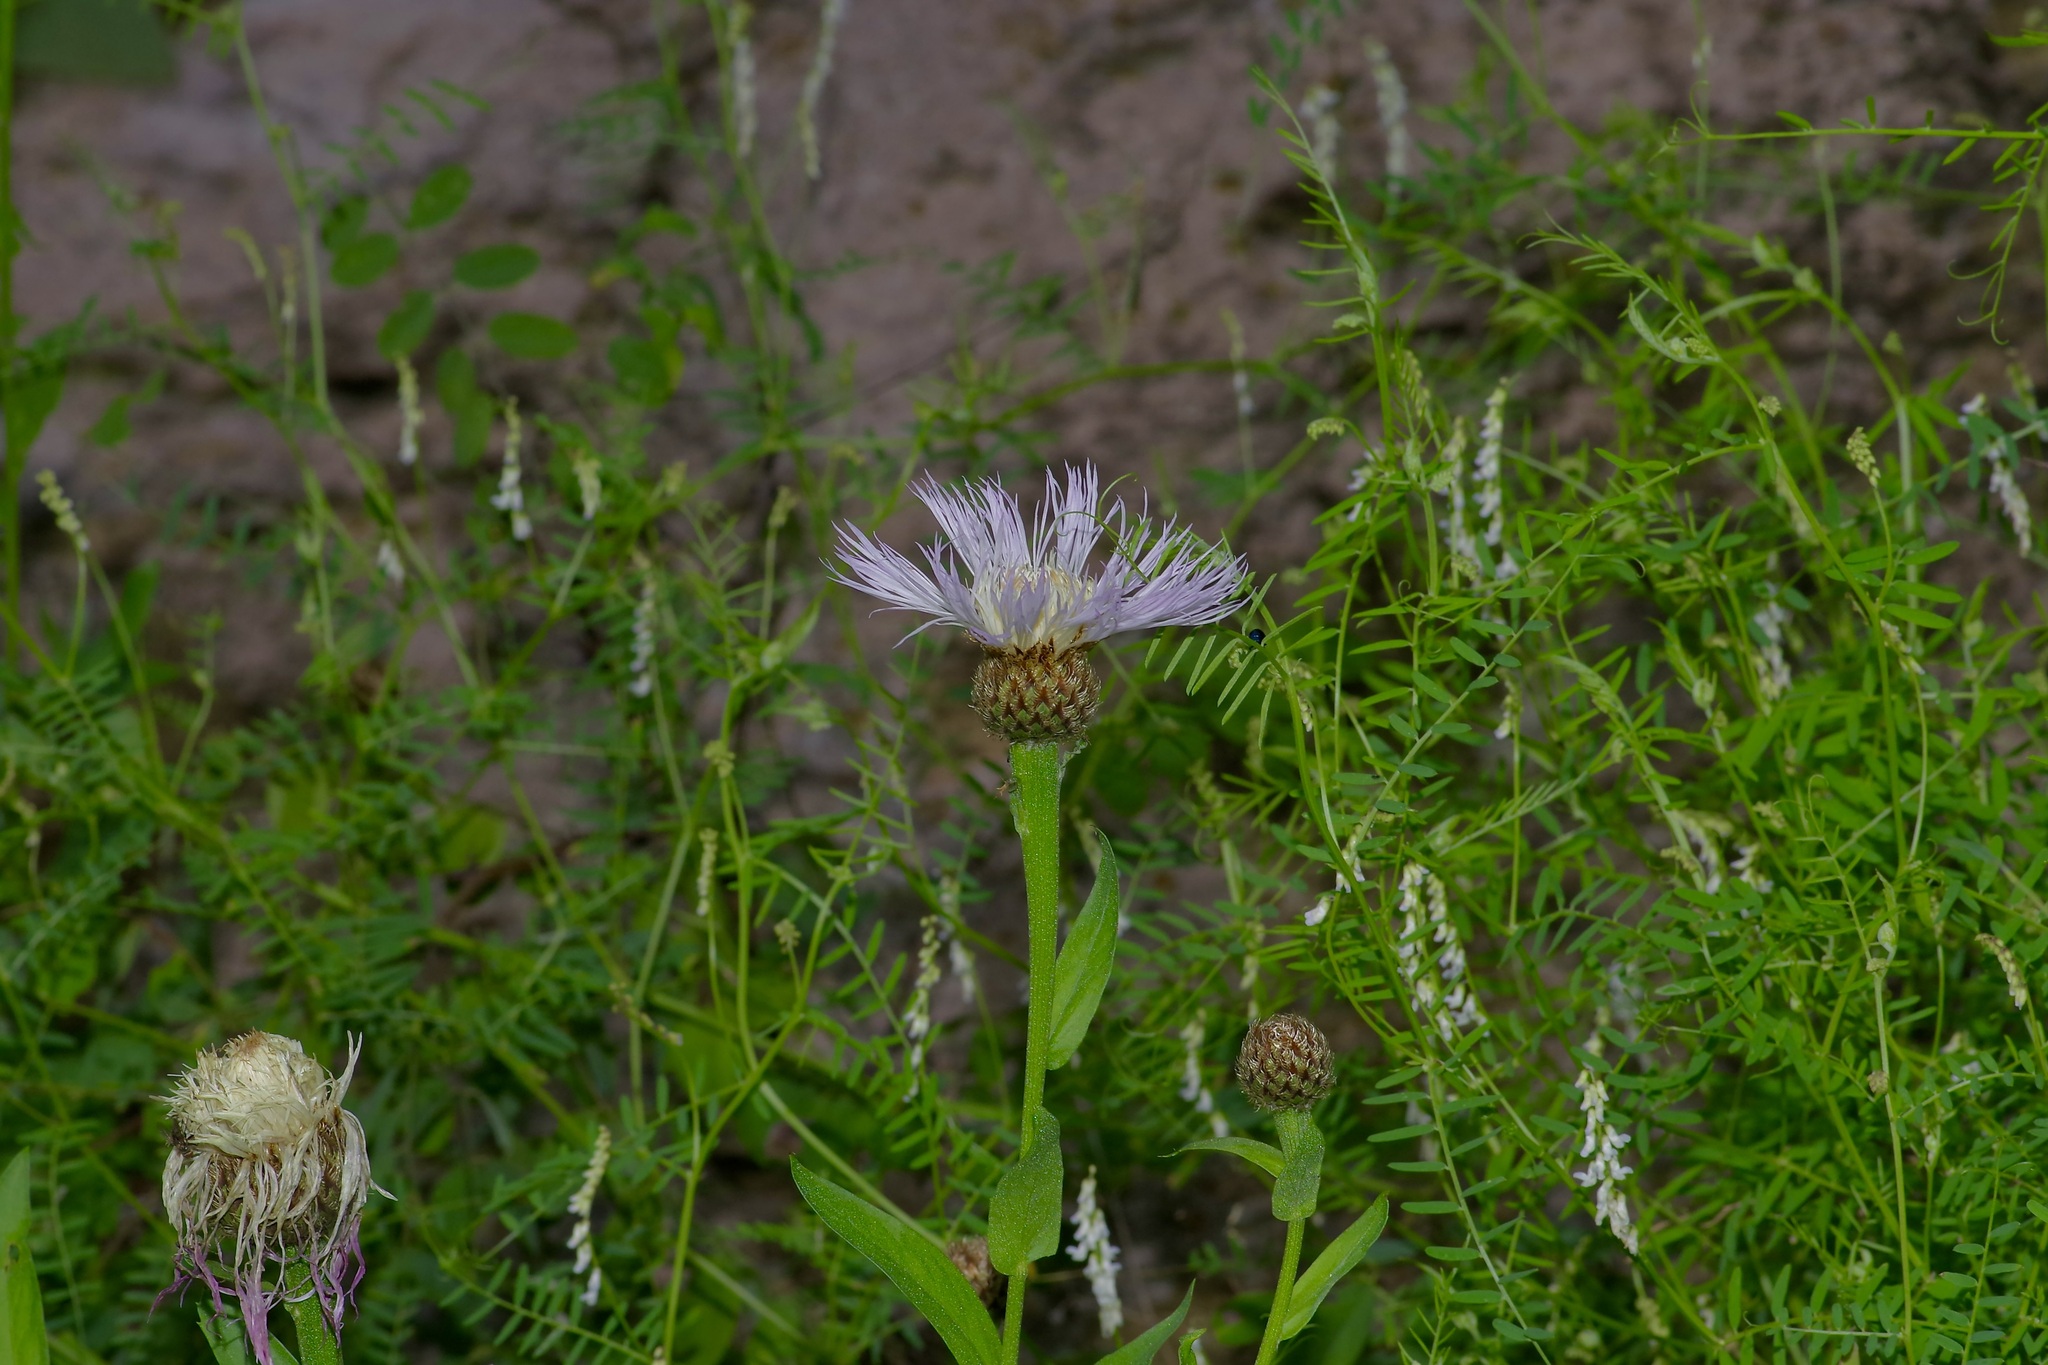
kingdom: Plantae
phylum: Tracheophyta
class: Magnoliopsida
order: Asterales
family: Asteraceae
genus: Plectocephalus
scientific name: Plectocephalus rothrockii
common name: Mexican basketflower
